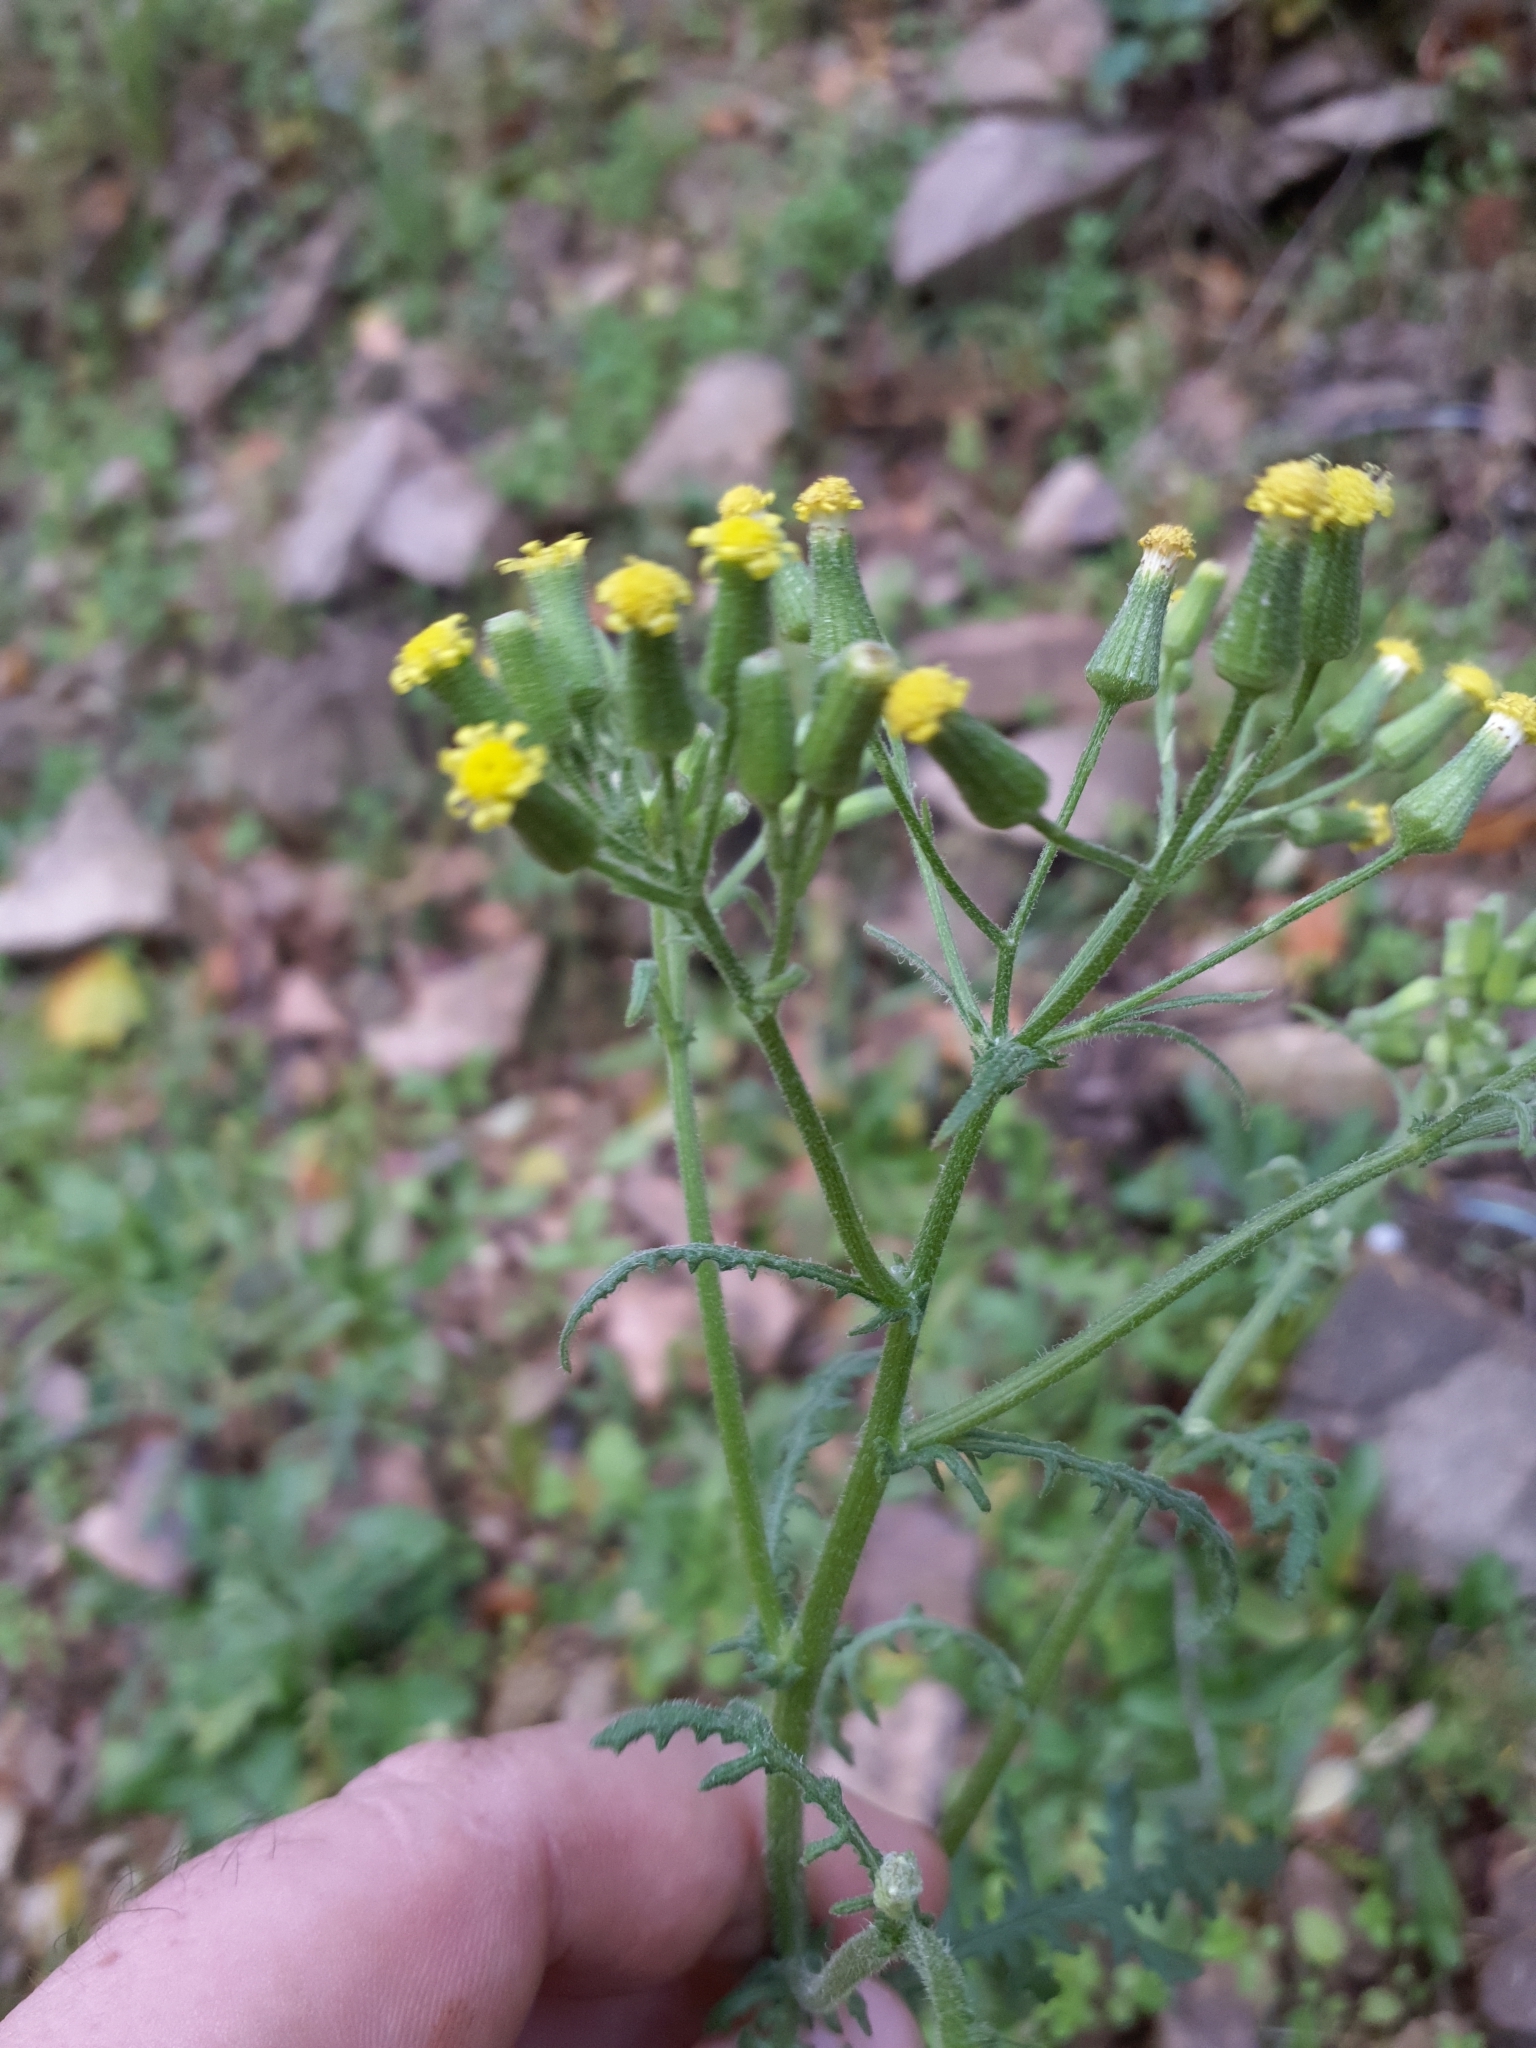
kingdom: Plantae
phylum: Tracheophyta
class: Magnoliopsida
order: Asterales
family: Asteraceae
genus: Senecio
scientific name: Senecio sylvaticus
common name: Woodland ragwort
